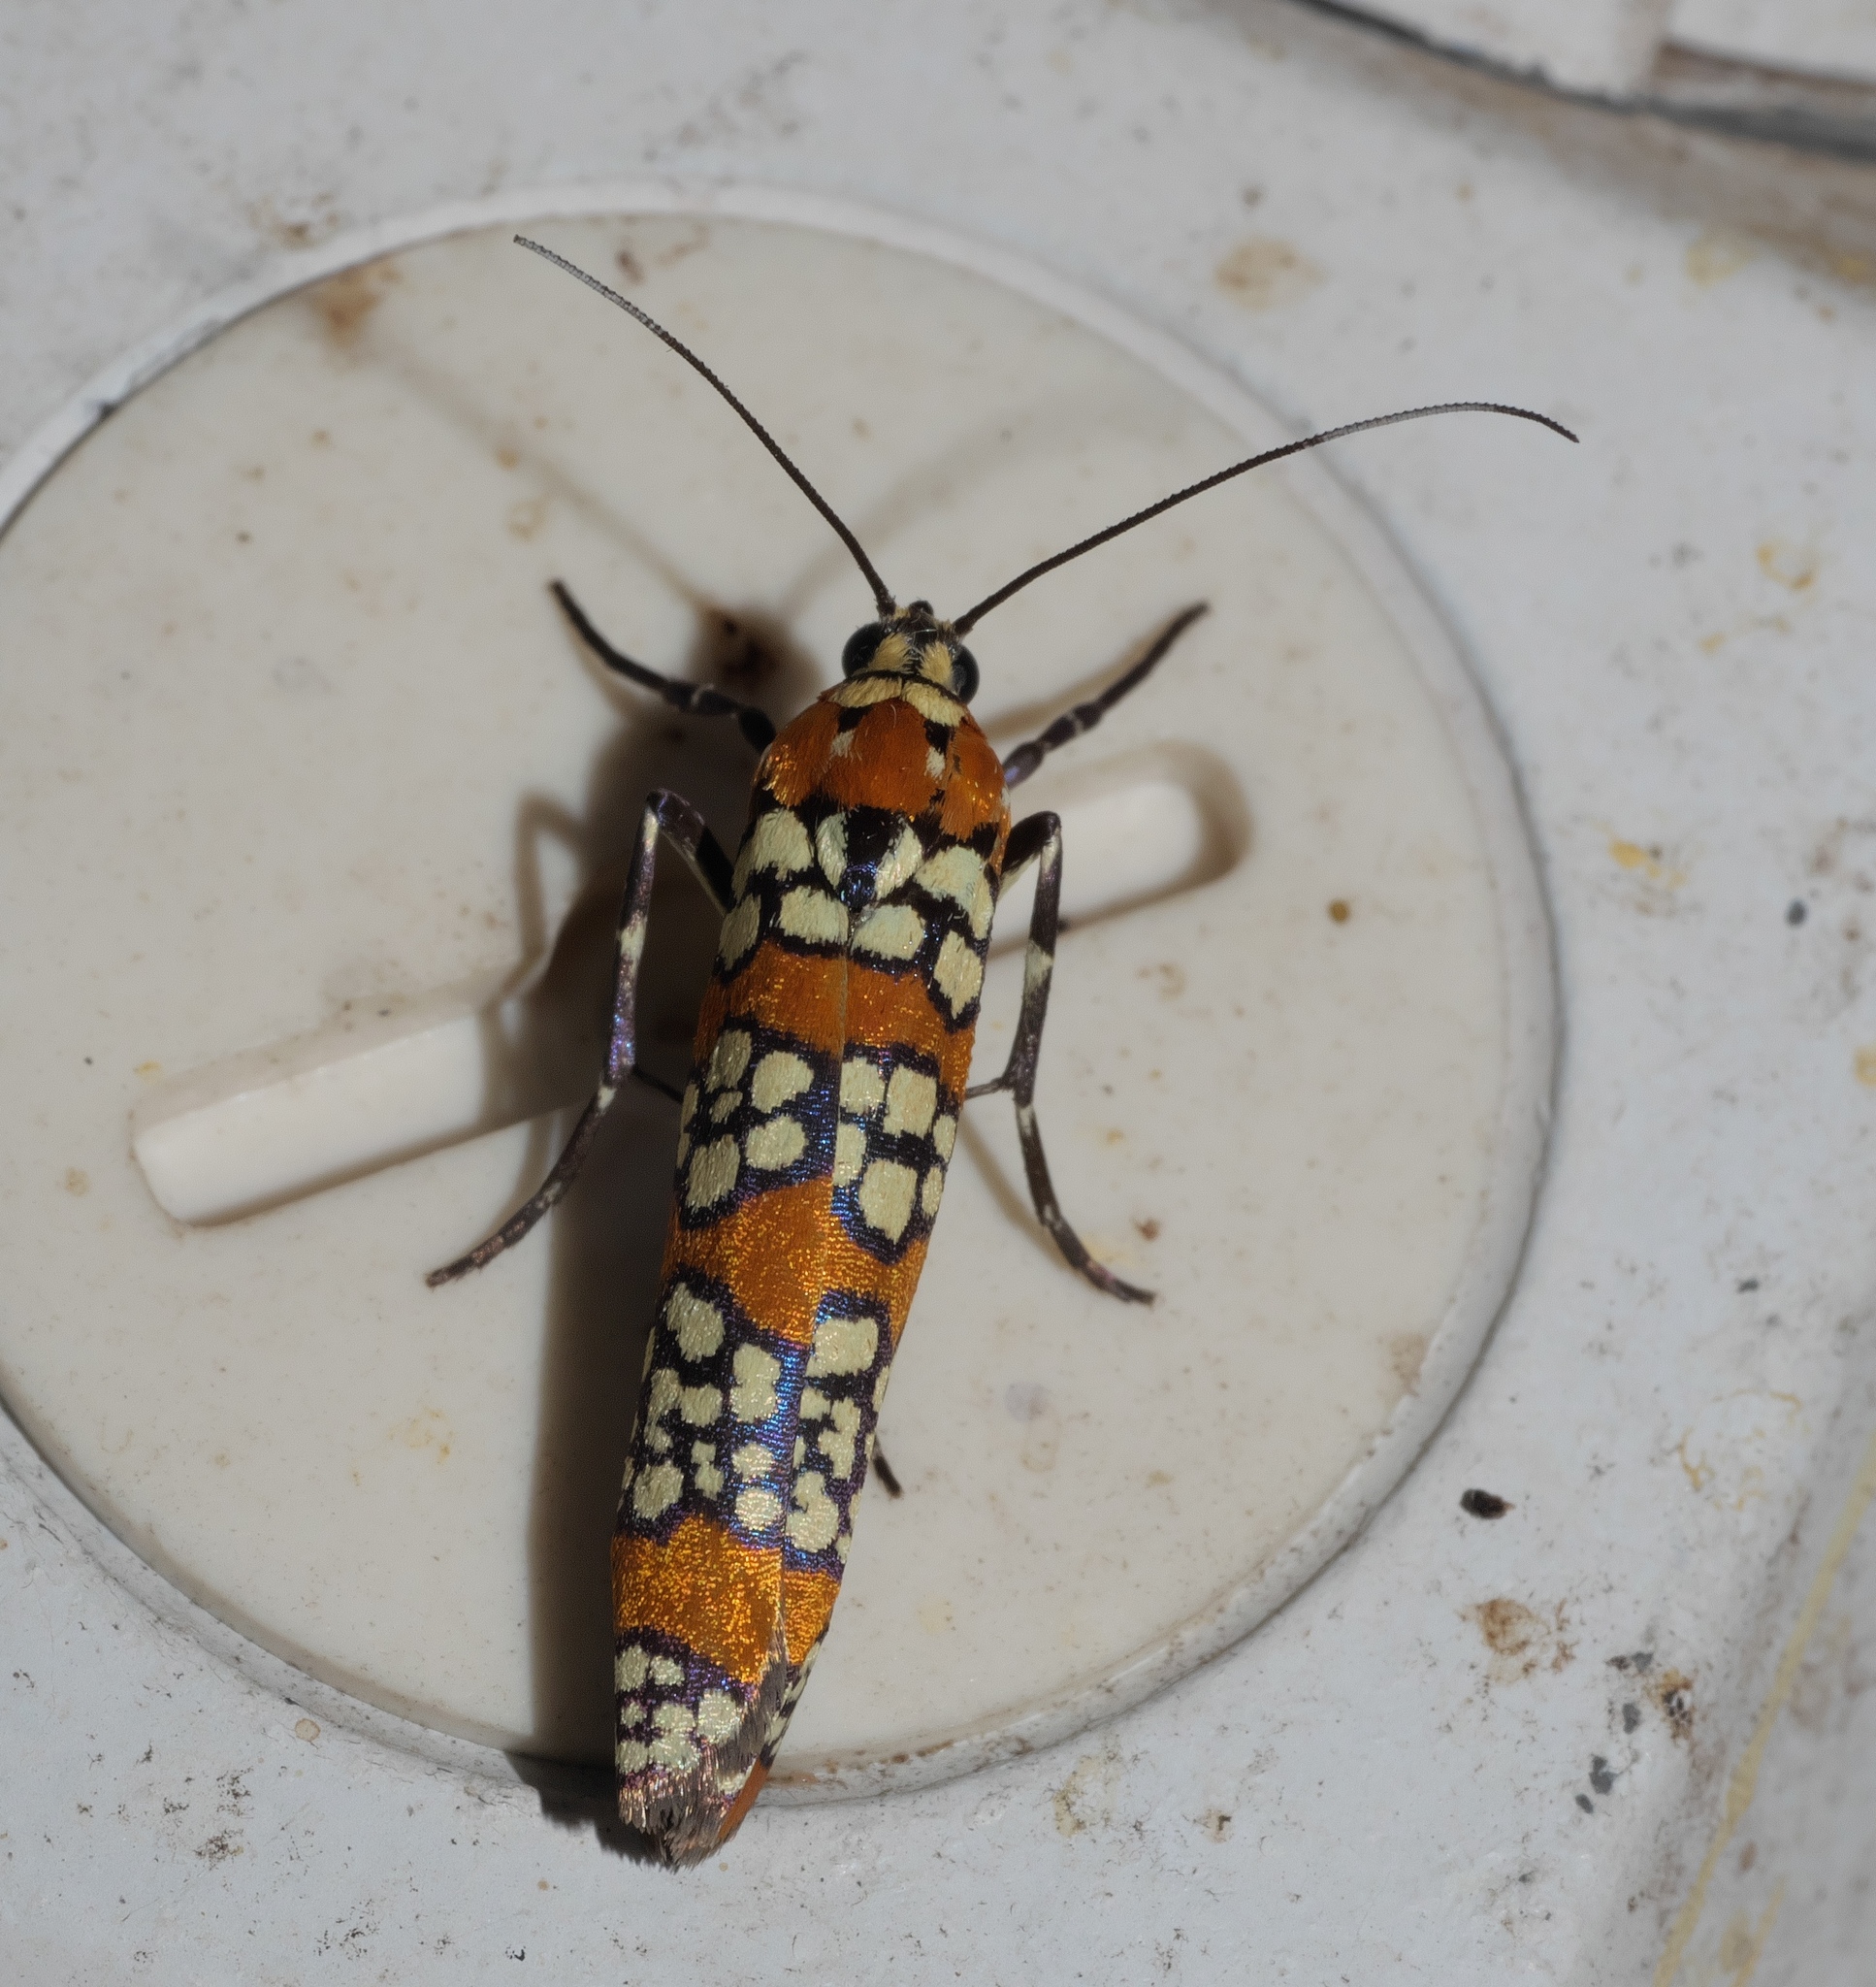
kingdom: Animalia
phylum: Arthropoda
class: Insecta
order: Lepidoptera
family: Attevidae
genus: Atteva
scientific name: Atteva punctella
